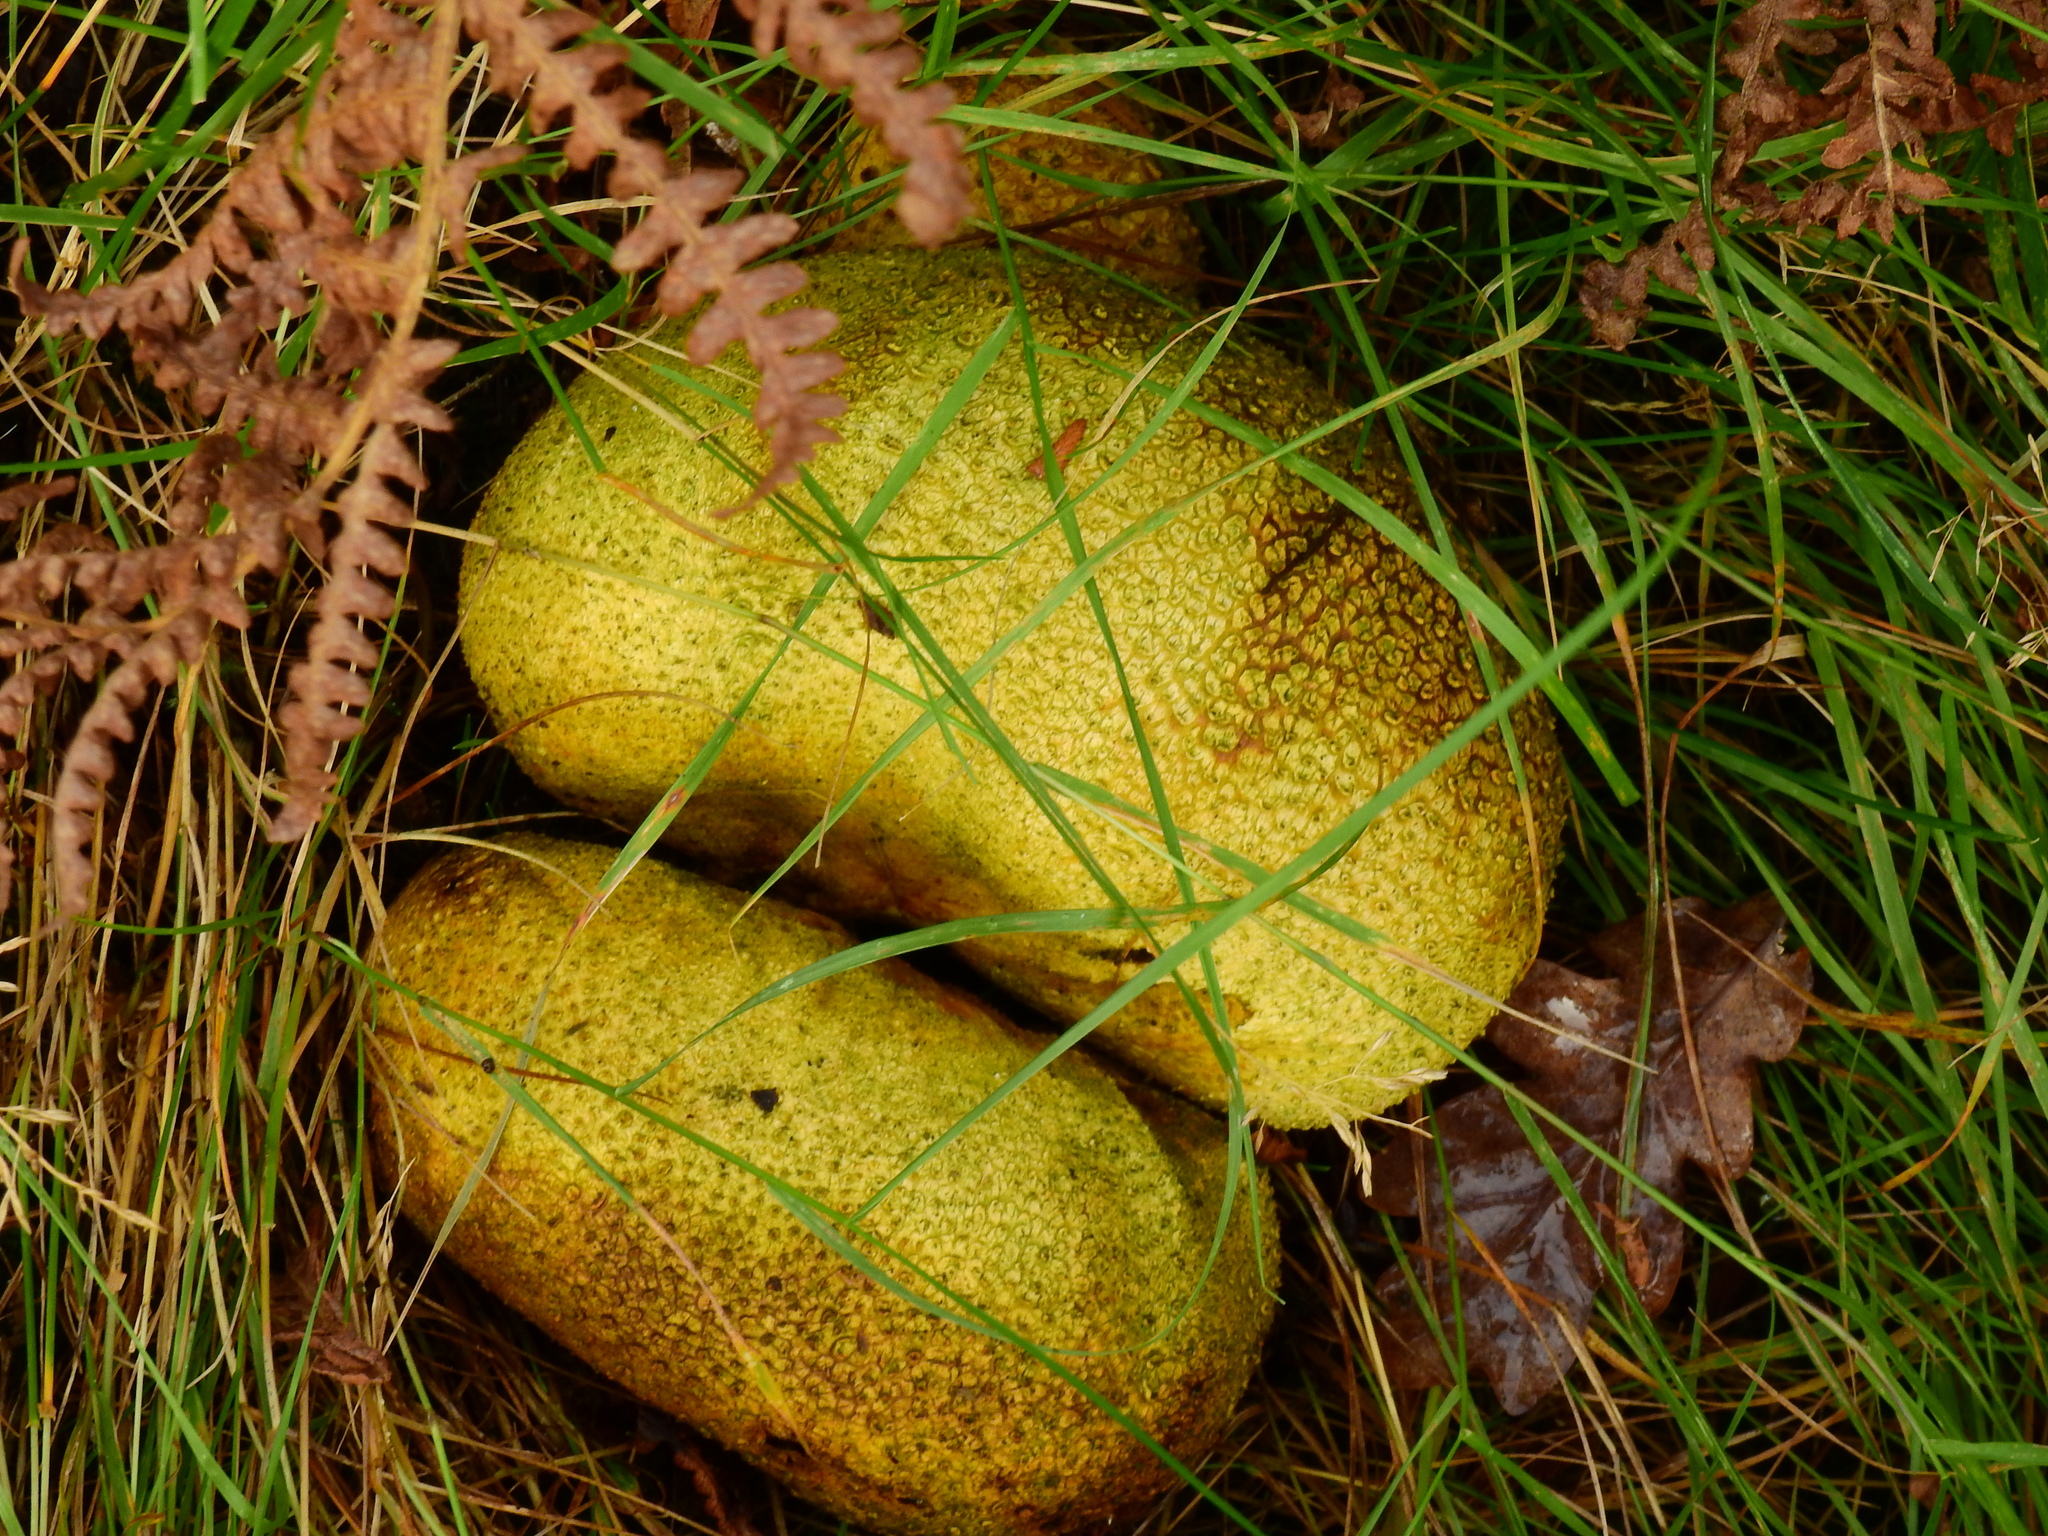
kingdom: Fungi
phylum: Basidiomycota
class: Agaricomycetes
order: Boletales
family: Sclerodermataceae
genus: Scleroderma
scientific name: Scleroderma citrinum
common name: Common earthball
